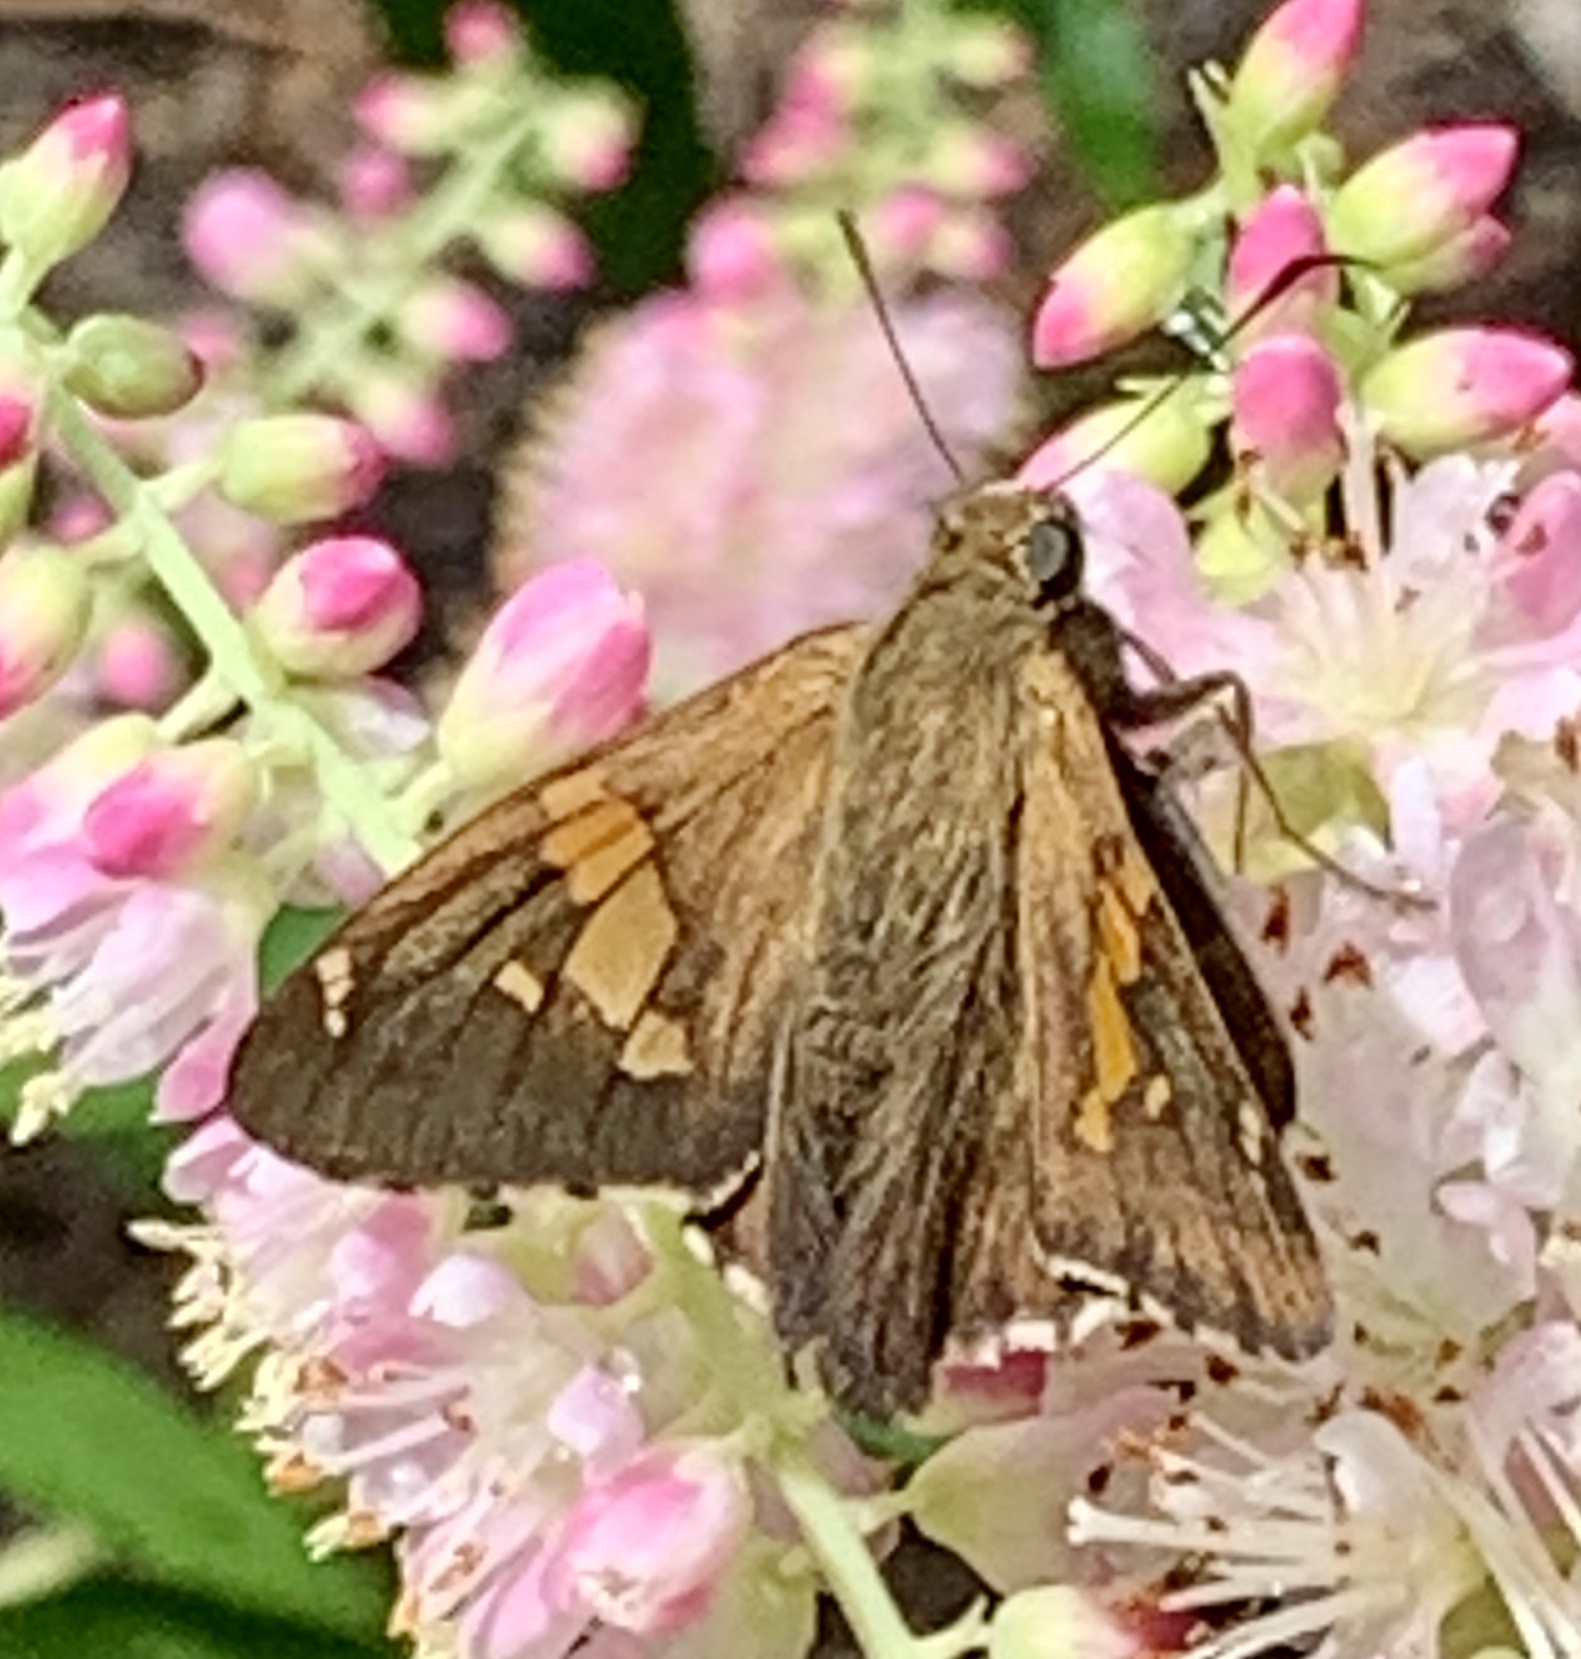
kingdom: Animalia
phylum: Arthropoda
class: Insecta
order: Lepidoptera
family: Hesperiidae
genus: Epargyreus
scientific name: Epargyreus clarus
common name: Silver-spotted skipper
